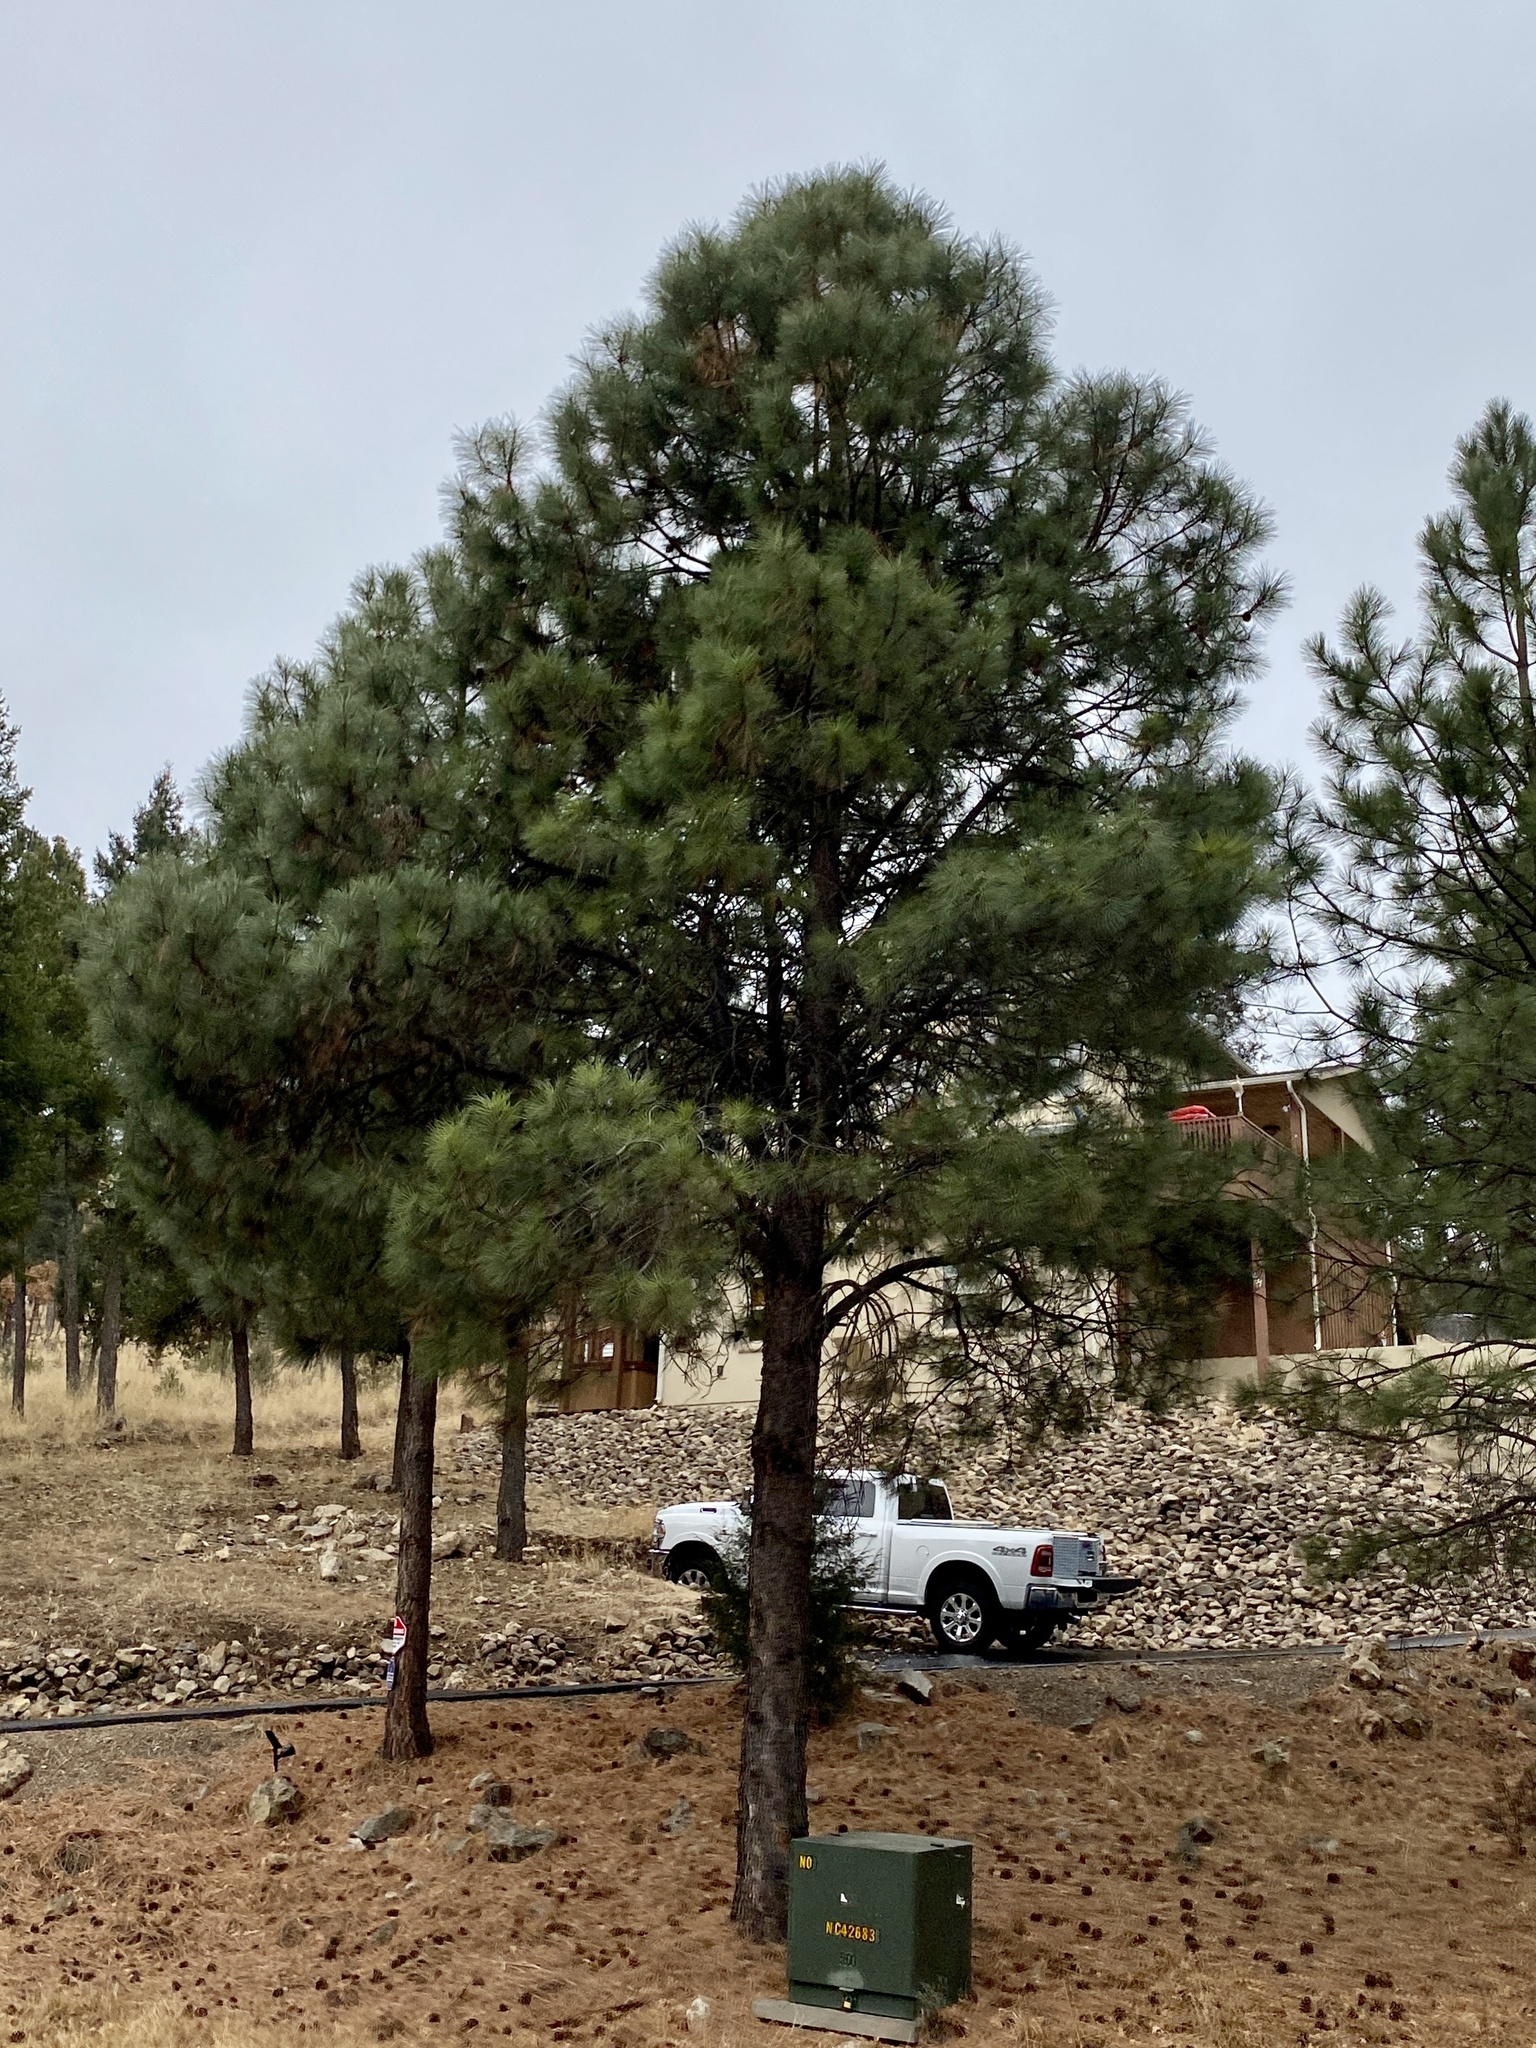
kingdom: Plantae
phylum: Tracheophyta
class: Pinopsida
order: Pinales
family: Pinaceae
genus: Pinus
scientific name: Pinus ponderosa
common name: Western yellow-pine
